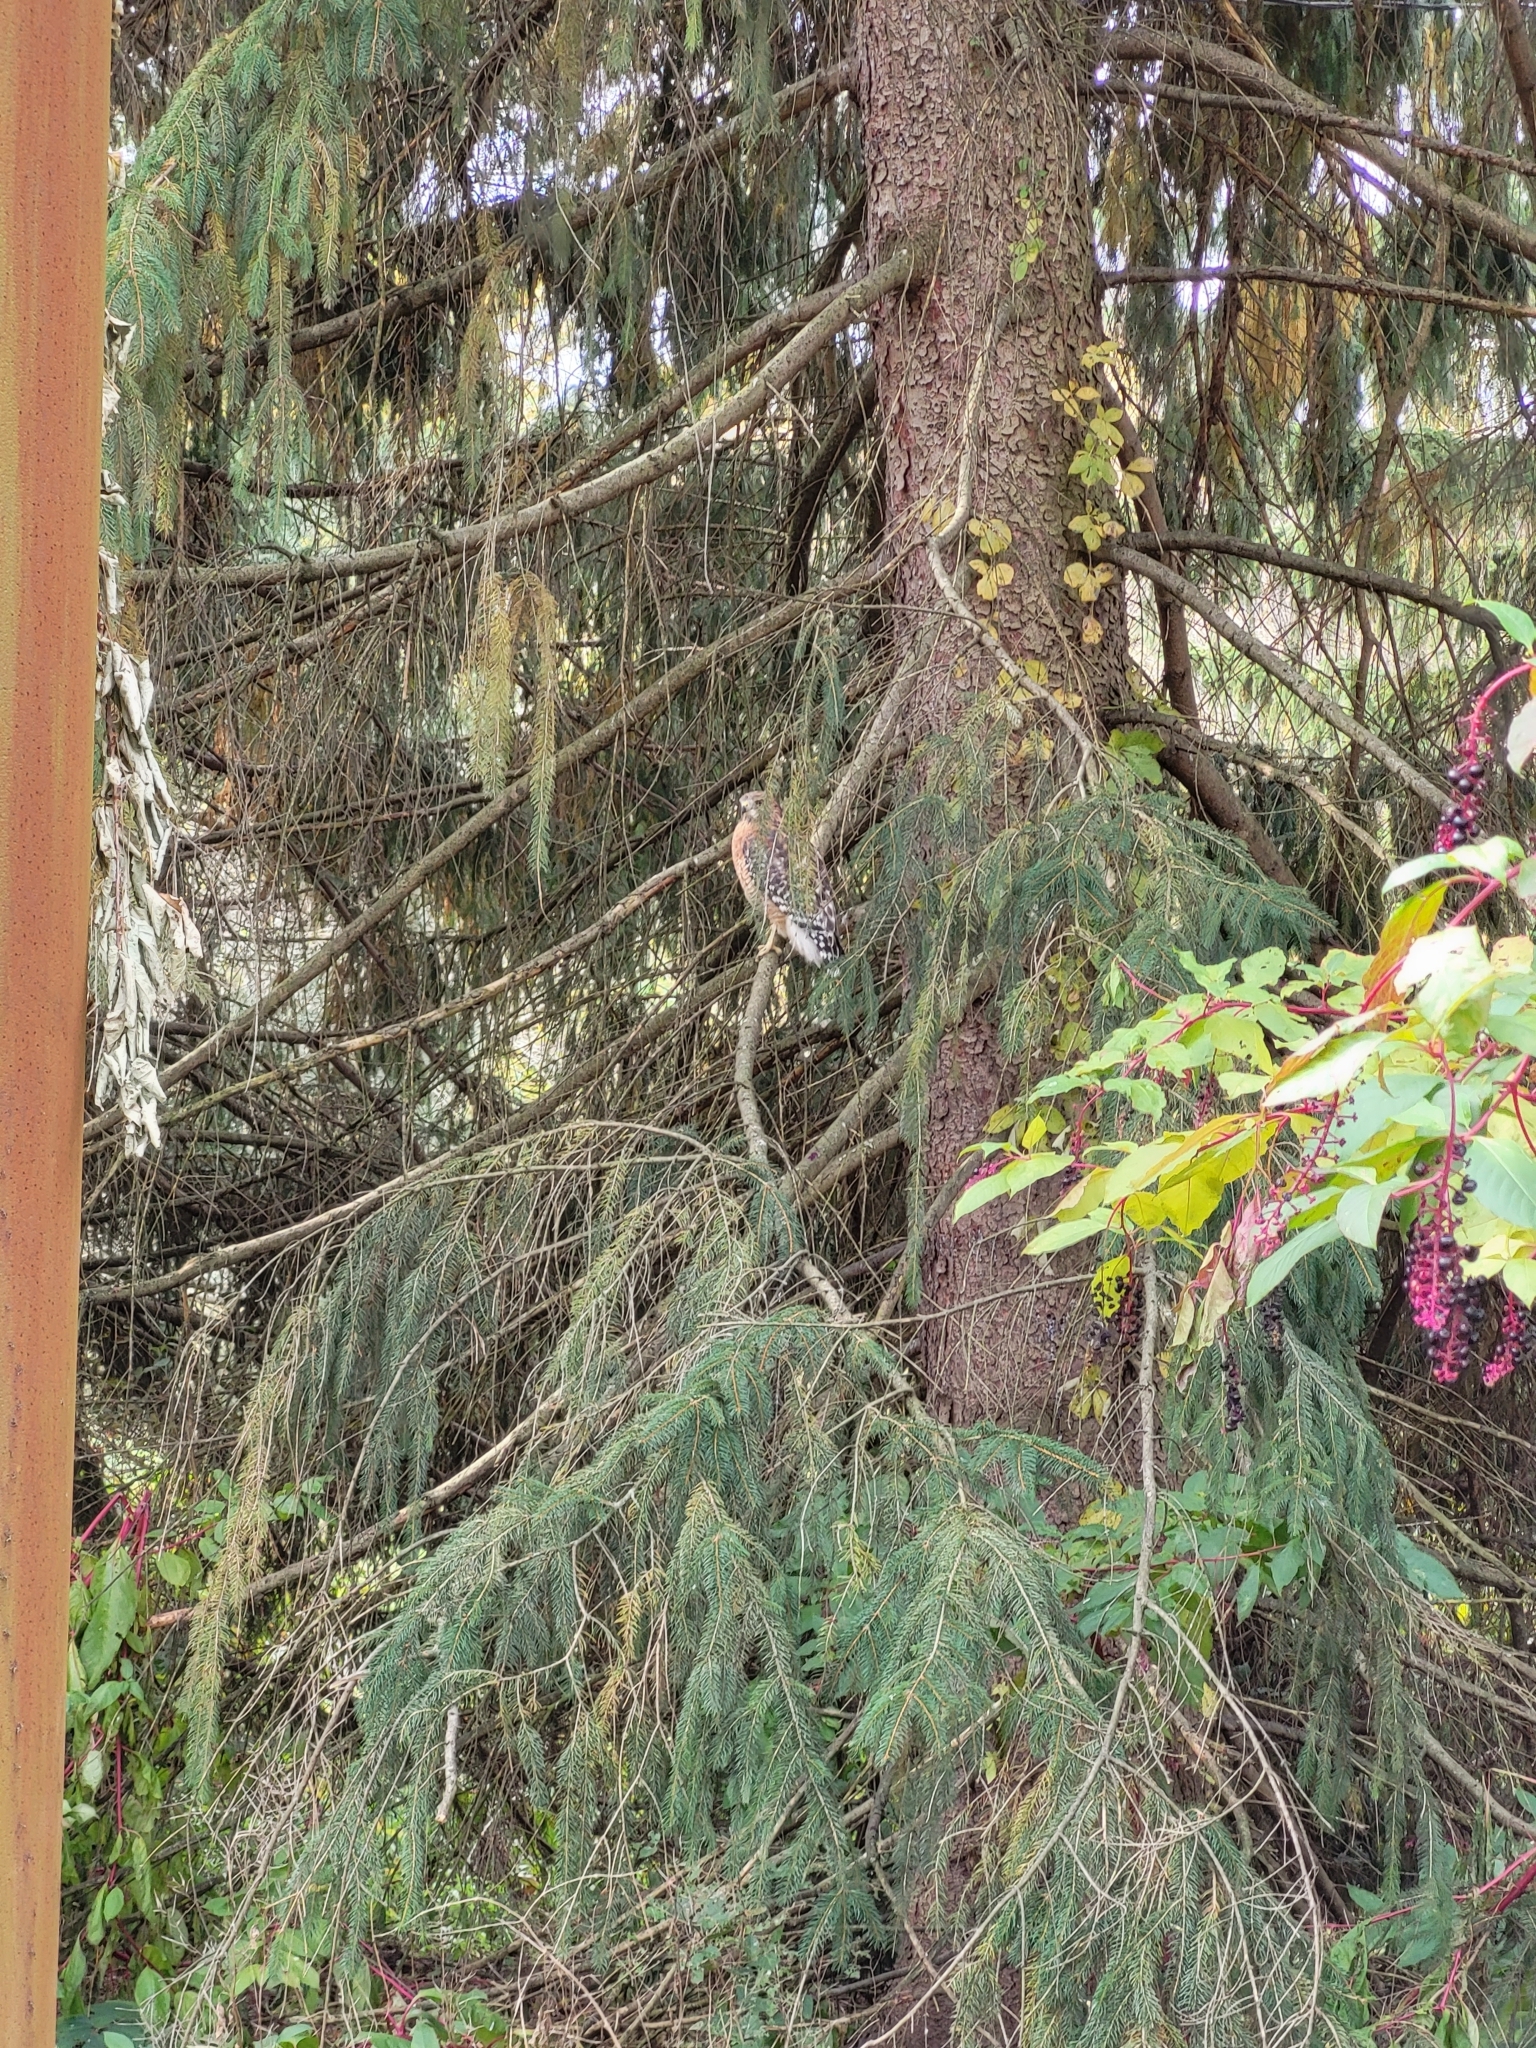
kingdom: Animalia
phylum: Chordata
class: Aves
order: Accipitriformes
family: Accipitridae
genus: Buteo
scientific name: Buteo lineatus
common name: Red-shouldered hawk
